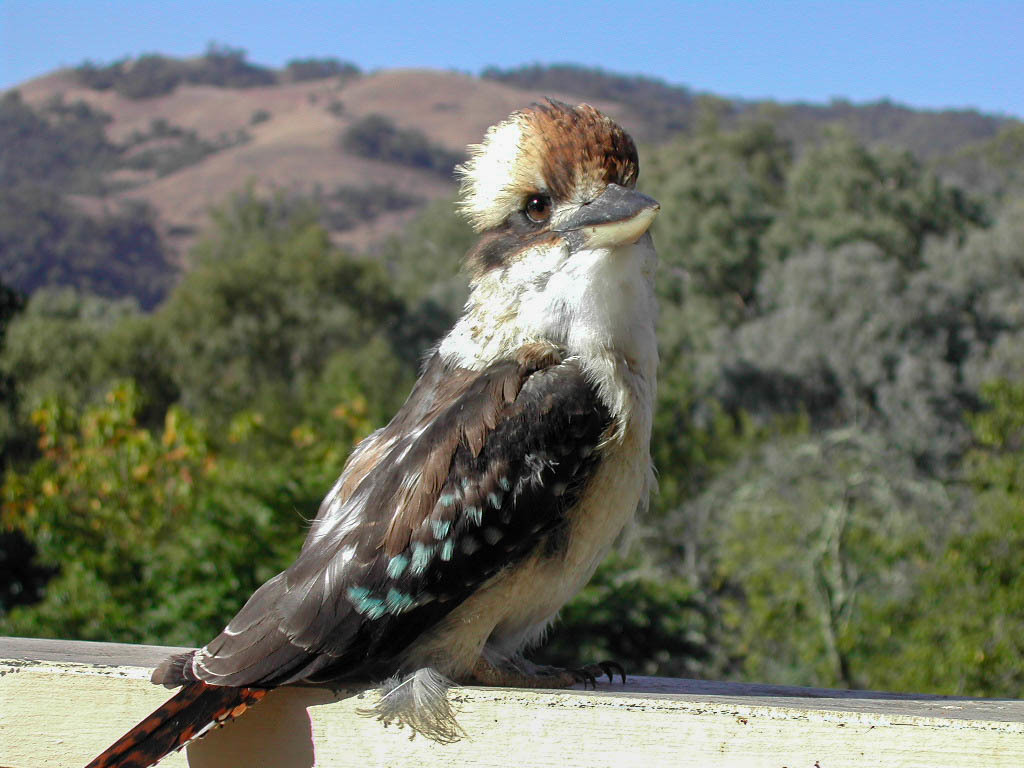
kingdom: Animalia
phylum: Chordata
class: Aves
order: Coraciiformes
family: Alcedinidae
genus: Dacelo
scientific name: Dacelo novaeguineae
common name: Laughing kookaburra
